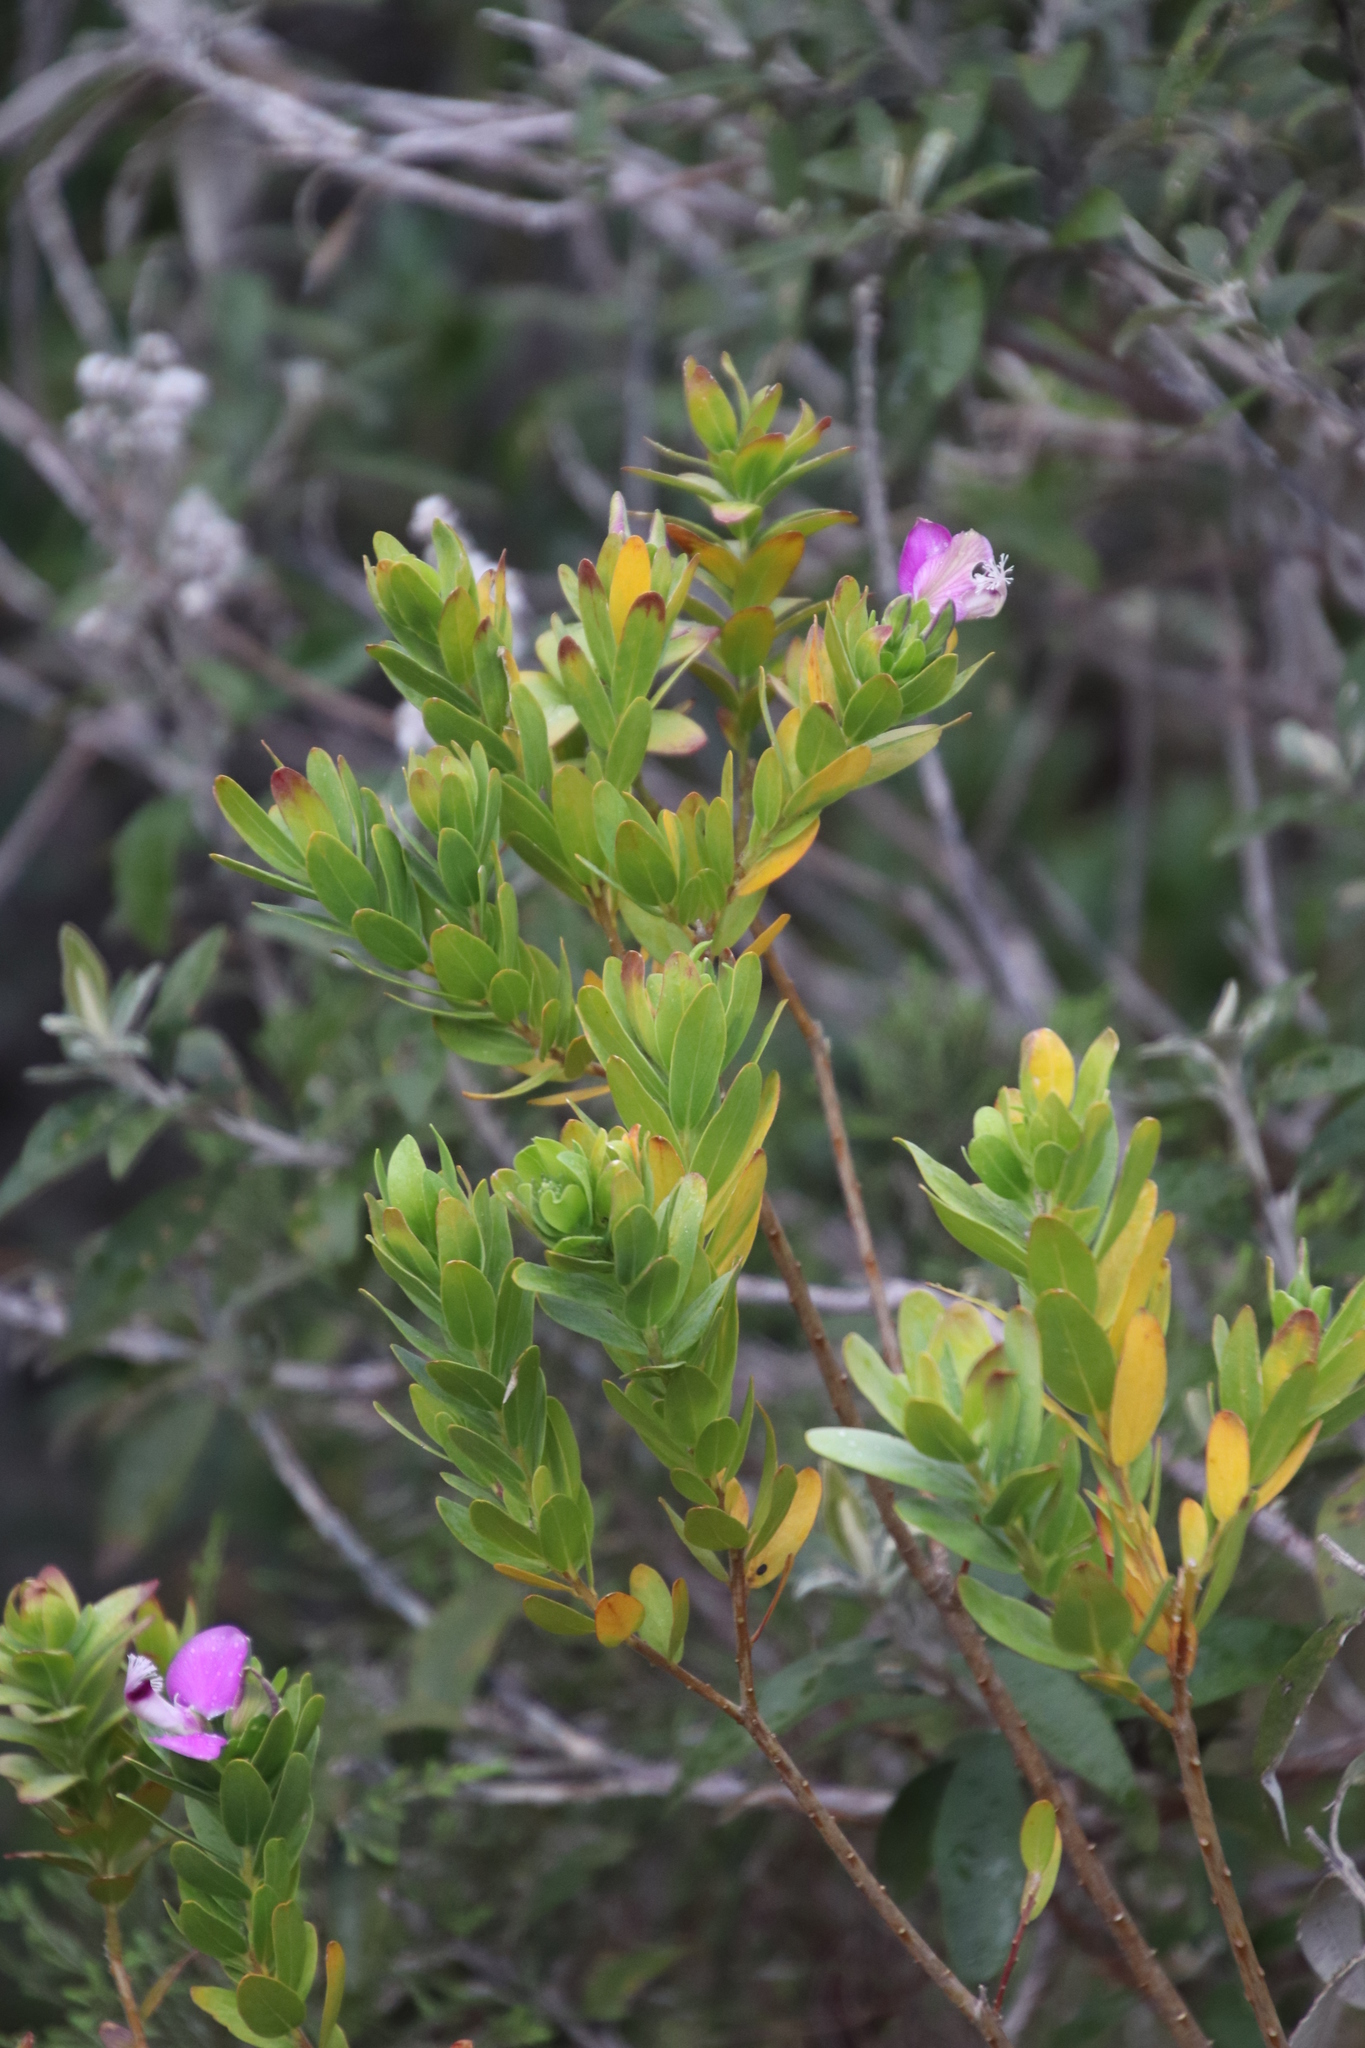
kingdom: Plantae
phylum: Tracheophyta
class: Magnoliopsida
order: Fabales
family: Polygalaceae
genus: Polygala
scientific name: Polygala myrtifolia
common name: Myrtle-leaf milkwort
